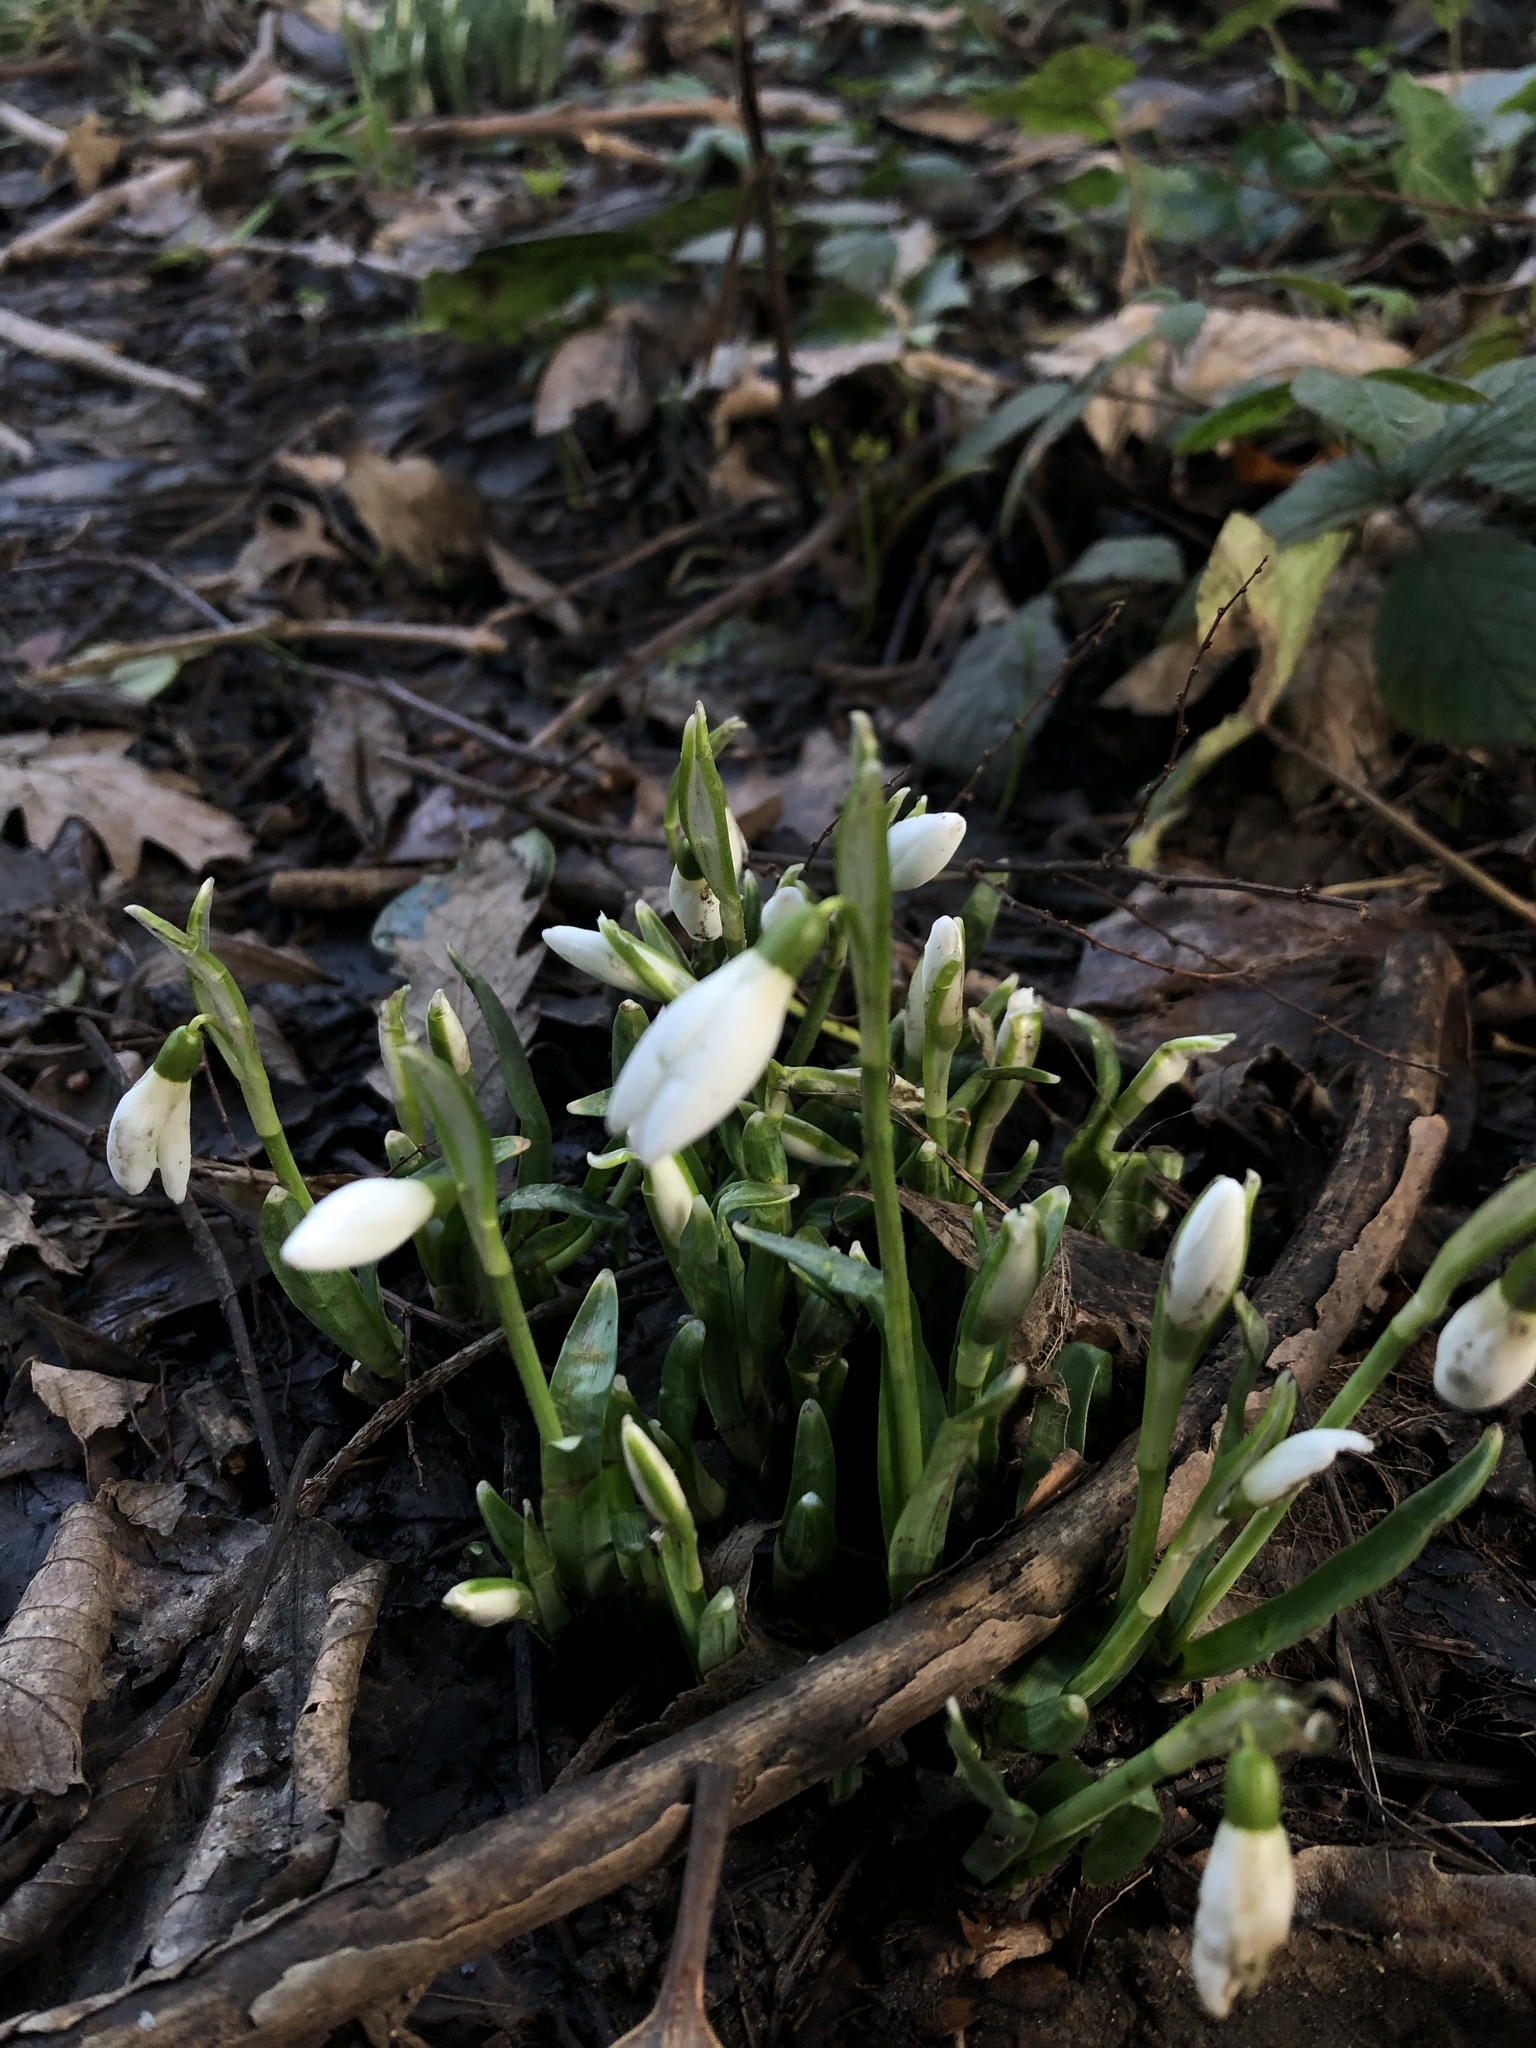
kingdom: Plantae
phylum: Tracheophyta
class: Liliopsida
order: Asparagales
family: Amaryllidaceae
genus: Galanthus
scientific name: Galanthus nivalis
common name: Snowdrop
